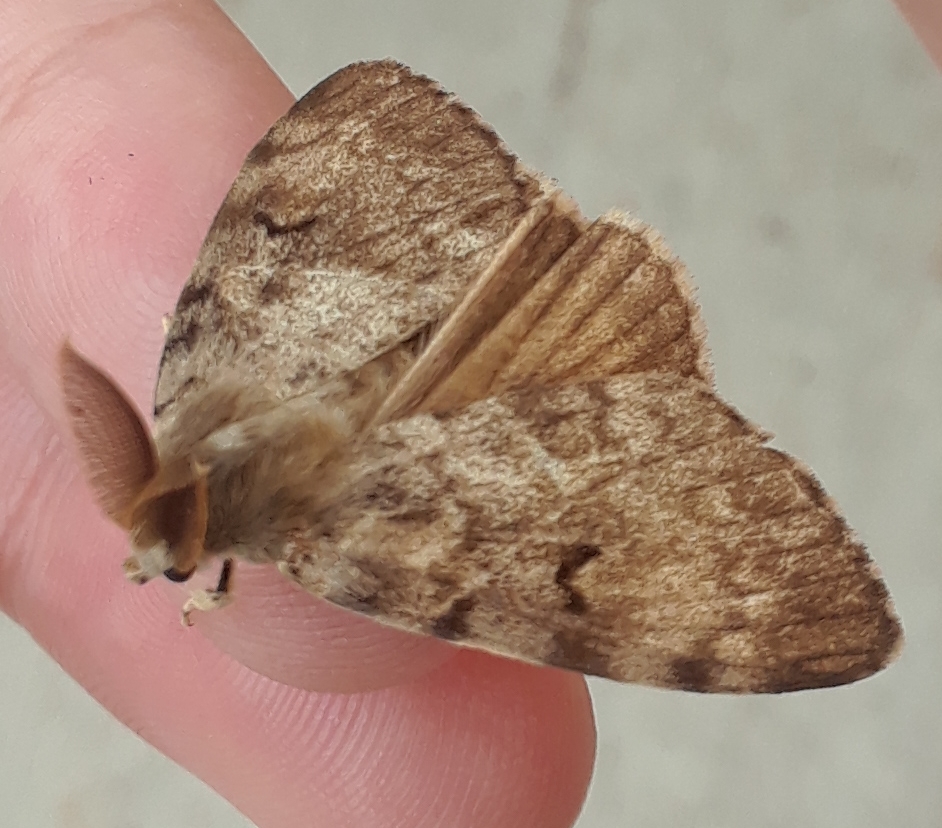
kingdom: Animalia
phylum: Arthropoda
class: Insecta
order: Lepidoptera
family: Erebidae
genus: Lymantria
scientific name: Lymantria dispar
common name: Gypsy moth
